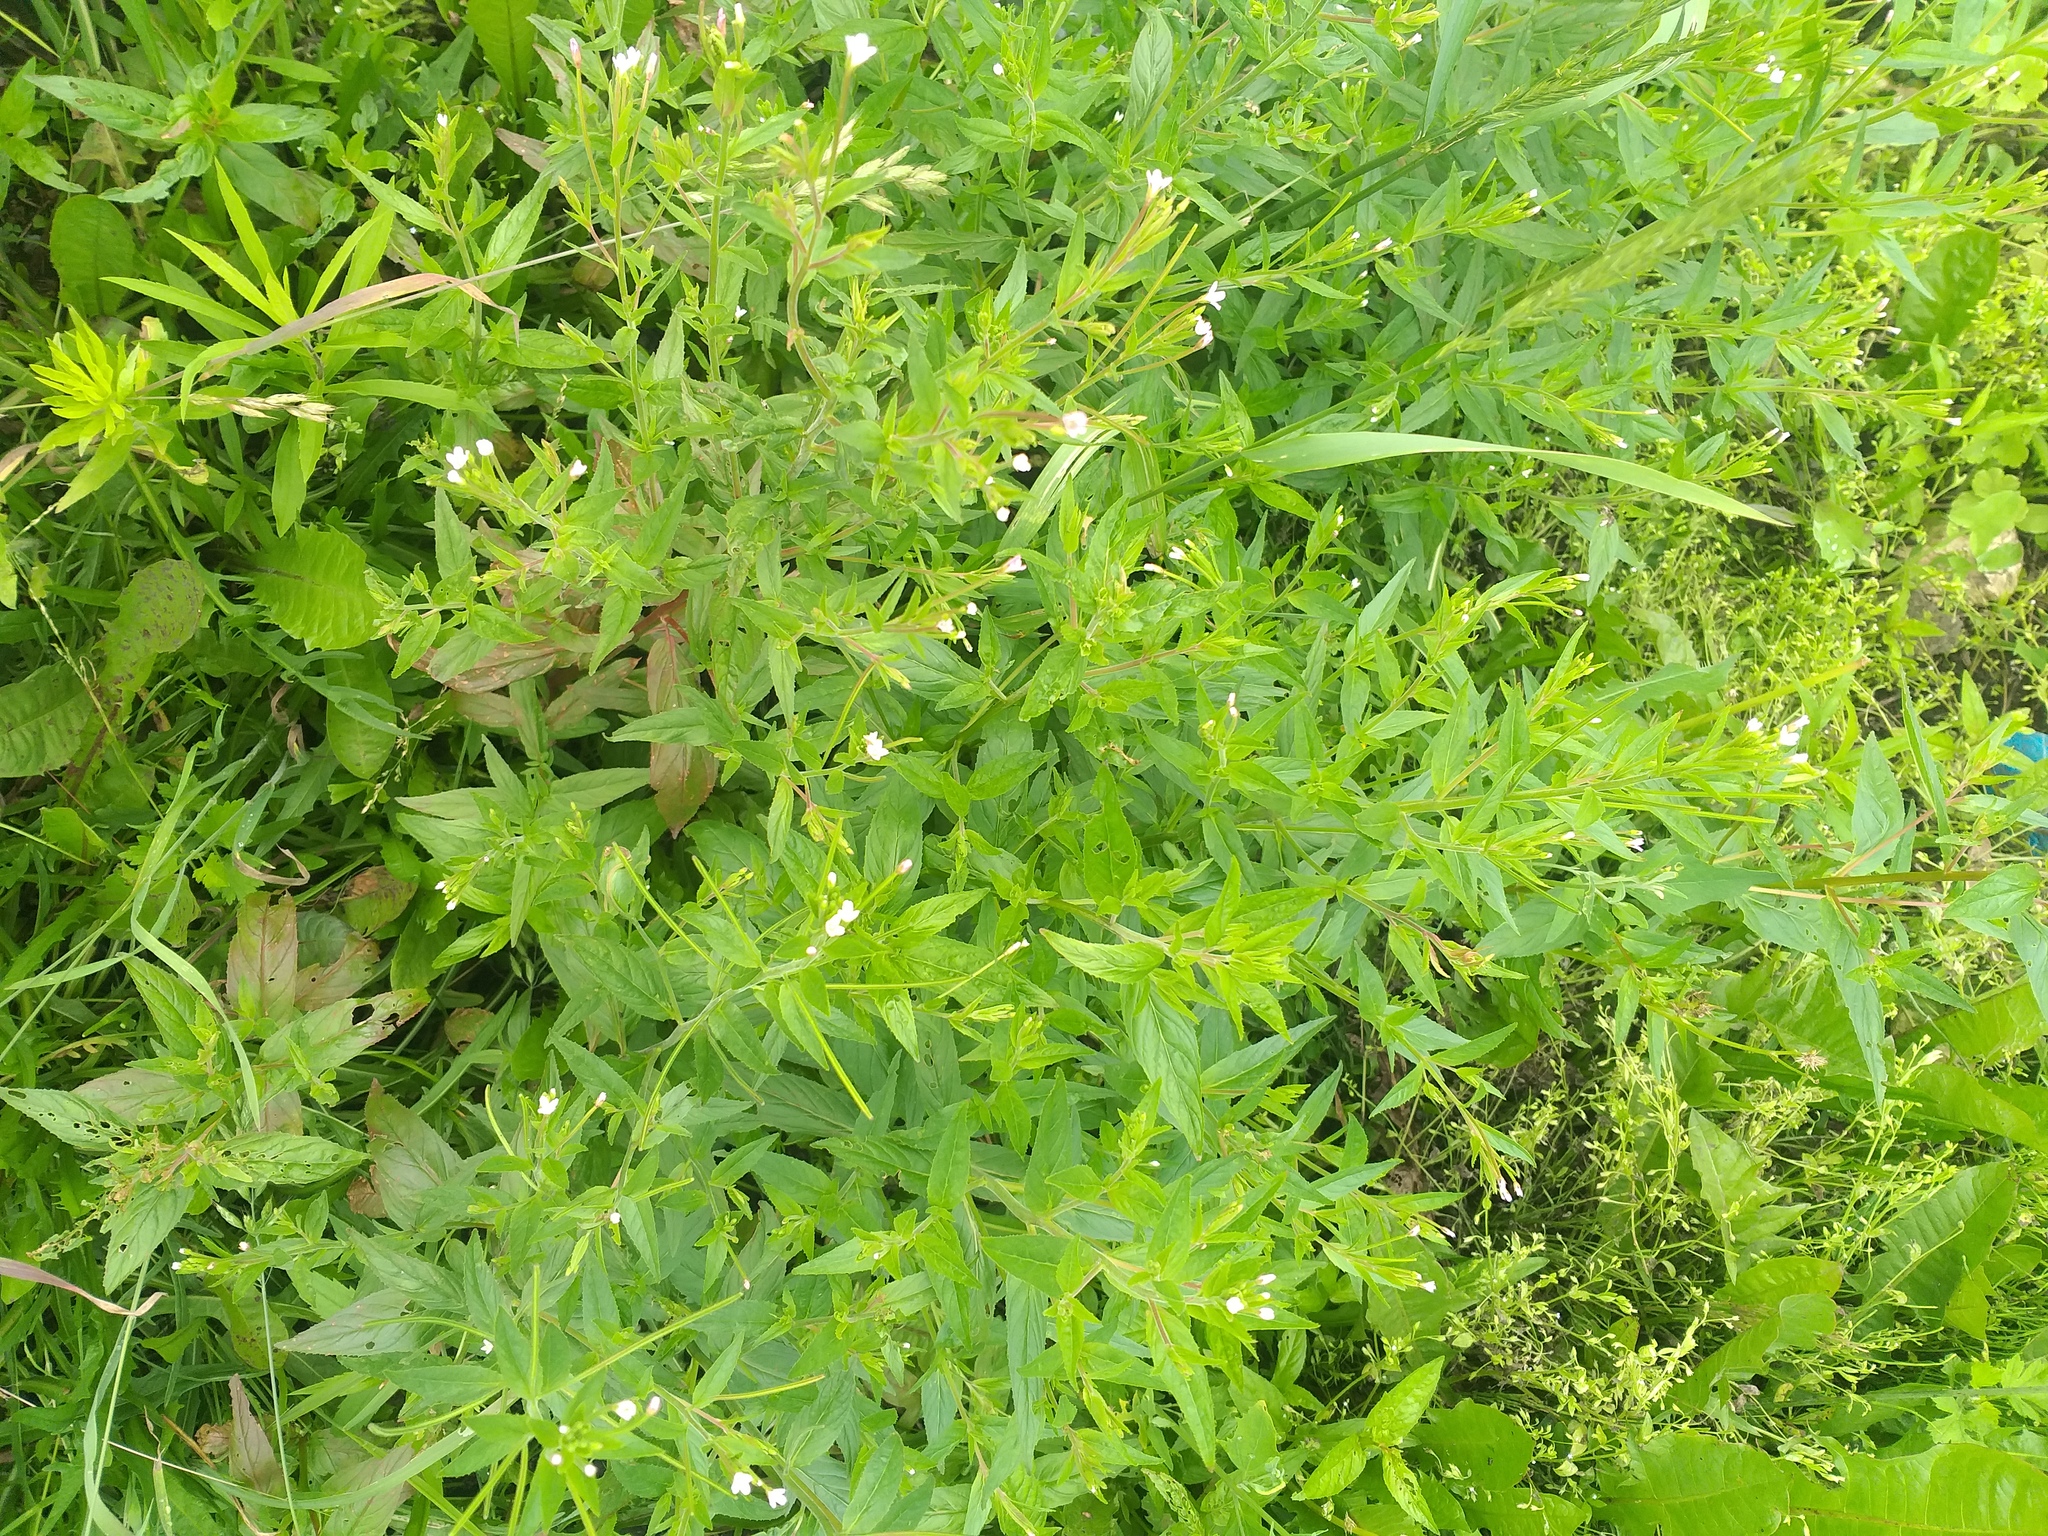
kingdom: Plantae
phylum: Tracheophyta
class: Magnoliopsida
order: Myrtales
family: Onagraceae
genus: Epilobium
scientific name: Epilobium ciliatum
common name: American willowherb
